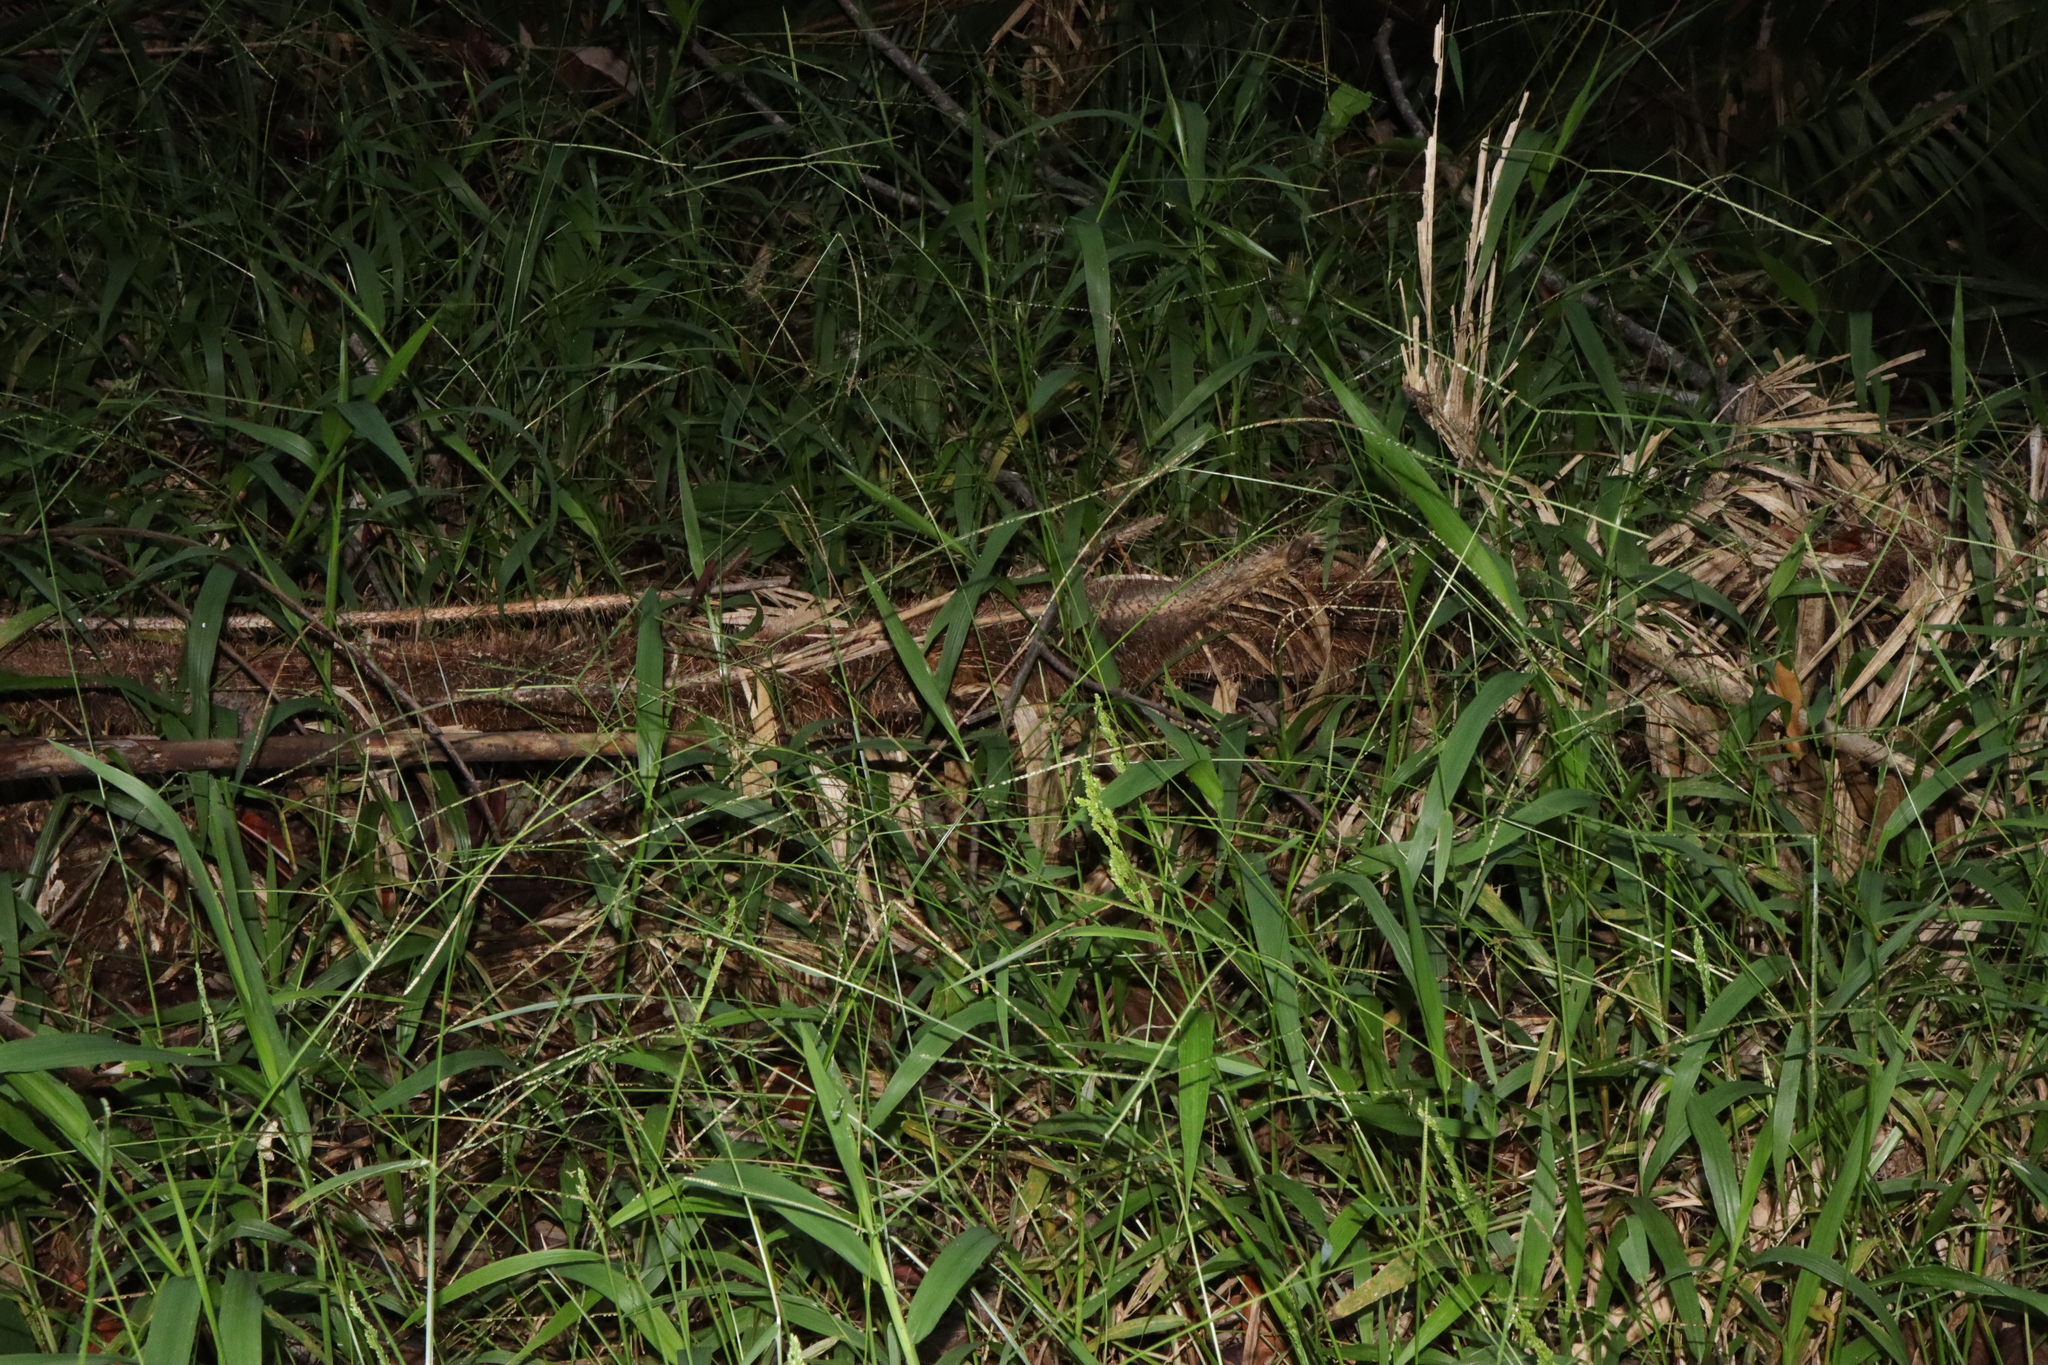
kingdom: Plantae
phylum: Tracheophyta
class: Liliopsida
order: Poales
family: Poaceae
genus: Paspalum
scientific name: Paspalum conjugatum
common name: Hilograss
